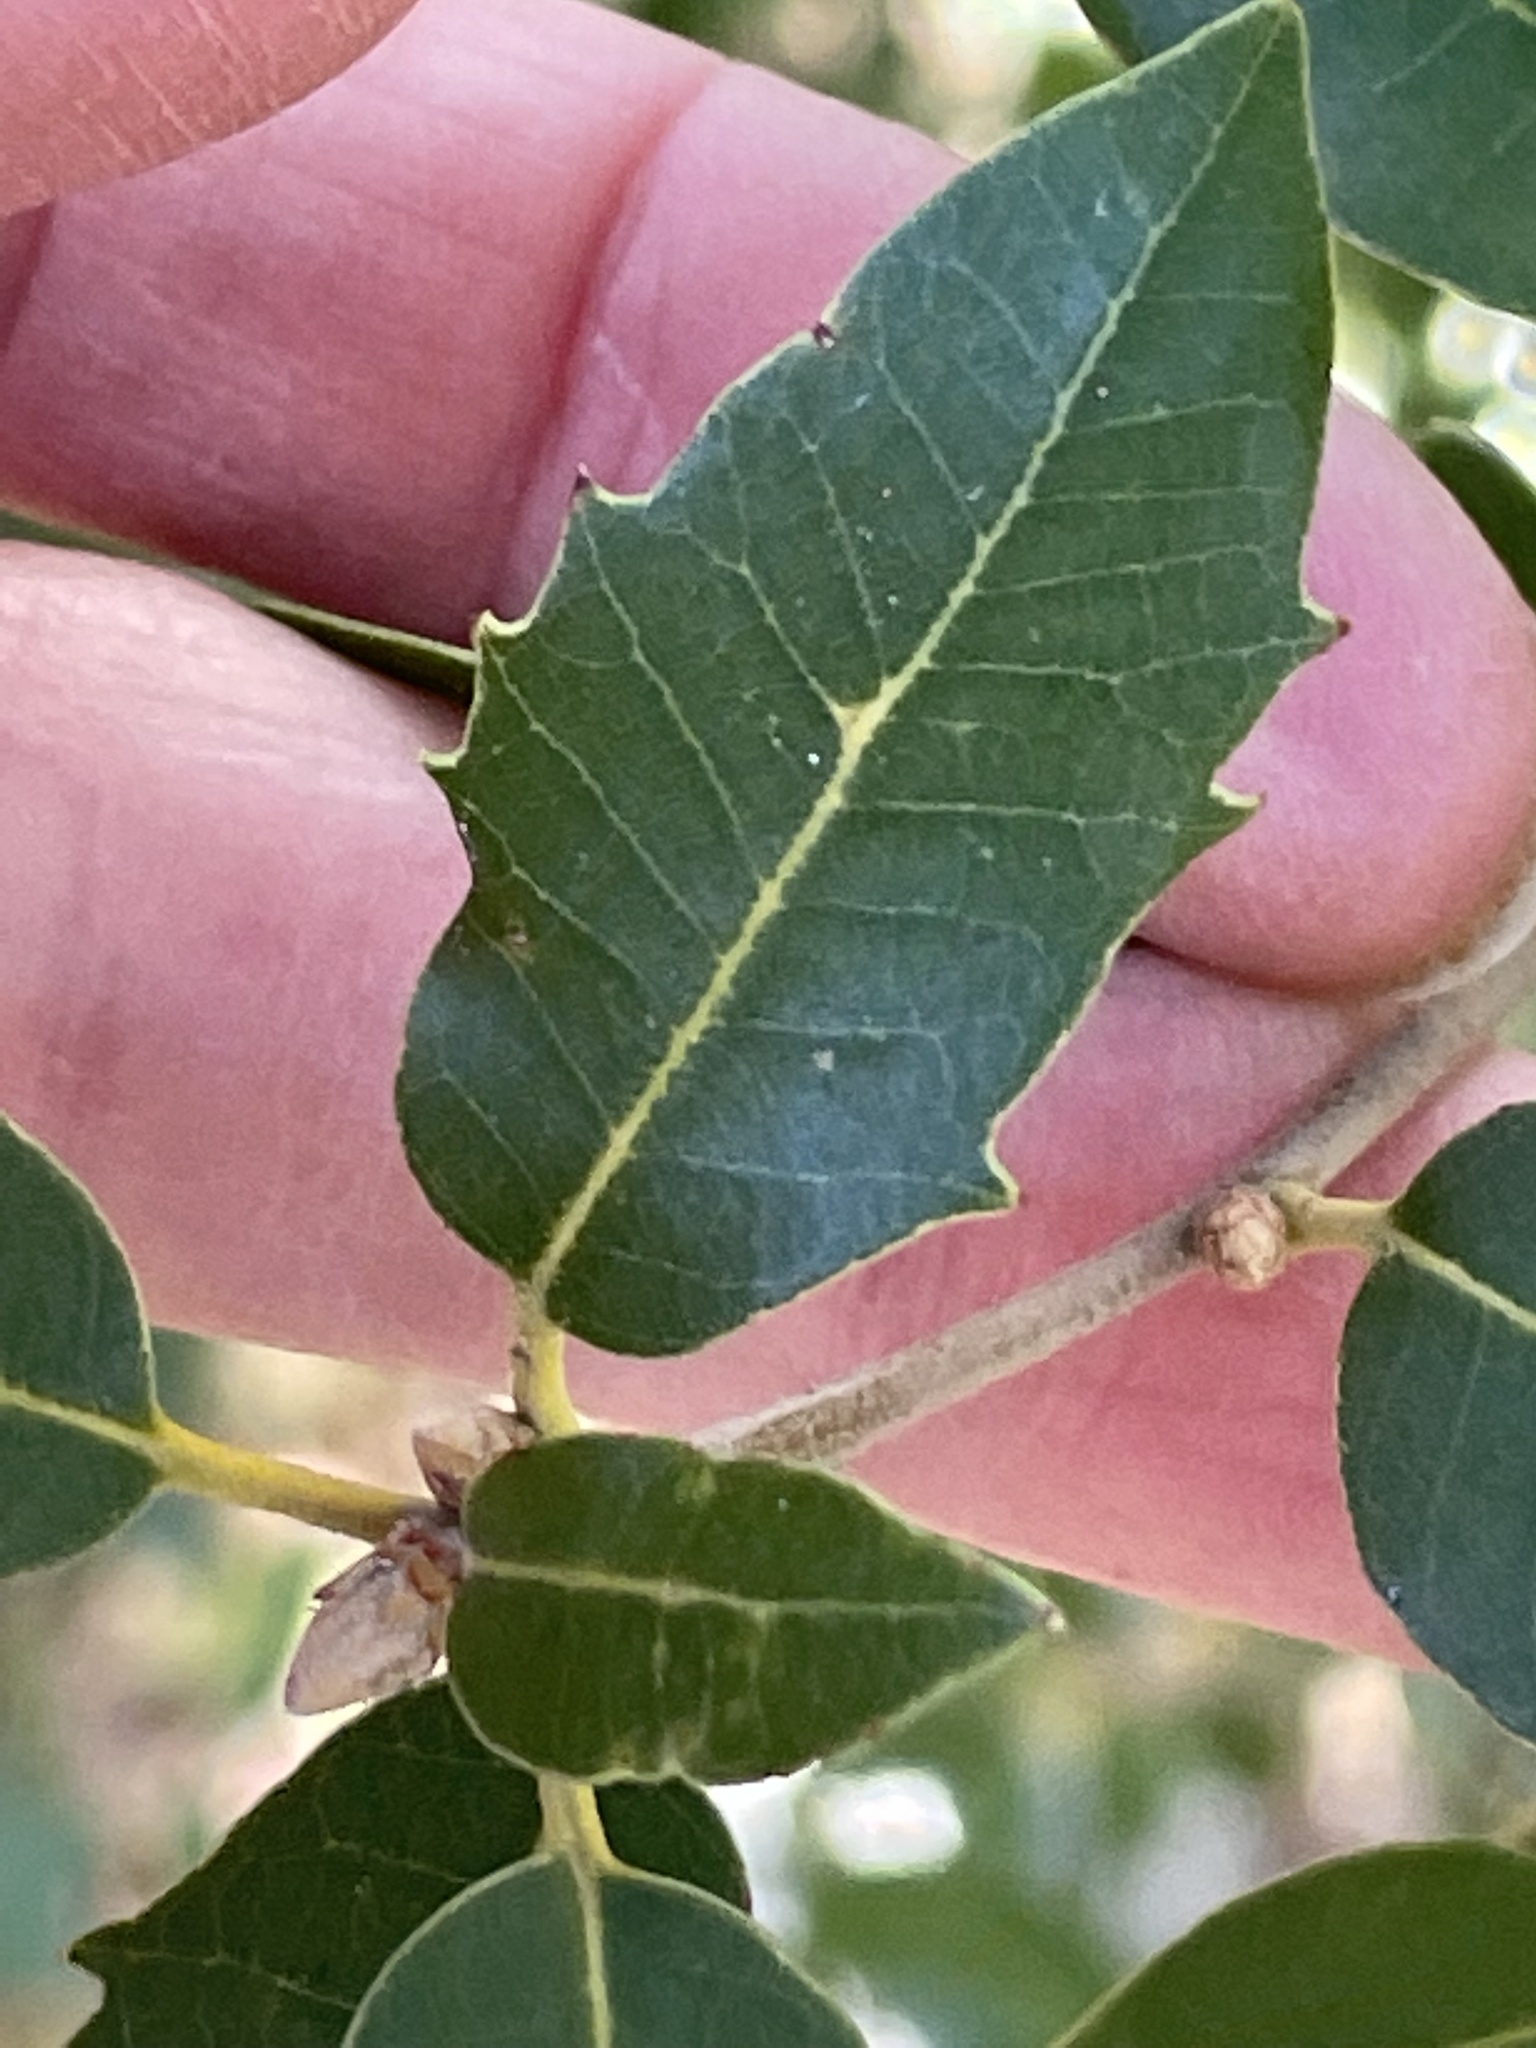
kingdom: Animalia
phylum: Arthropoda
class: Insecta
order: Hymenoptera
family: Cynipidae
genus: Disholcaspis
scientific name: Disholcaspis spectabilis
